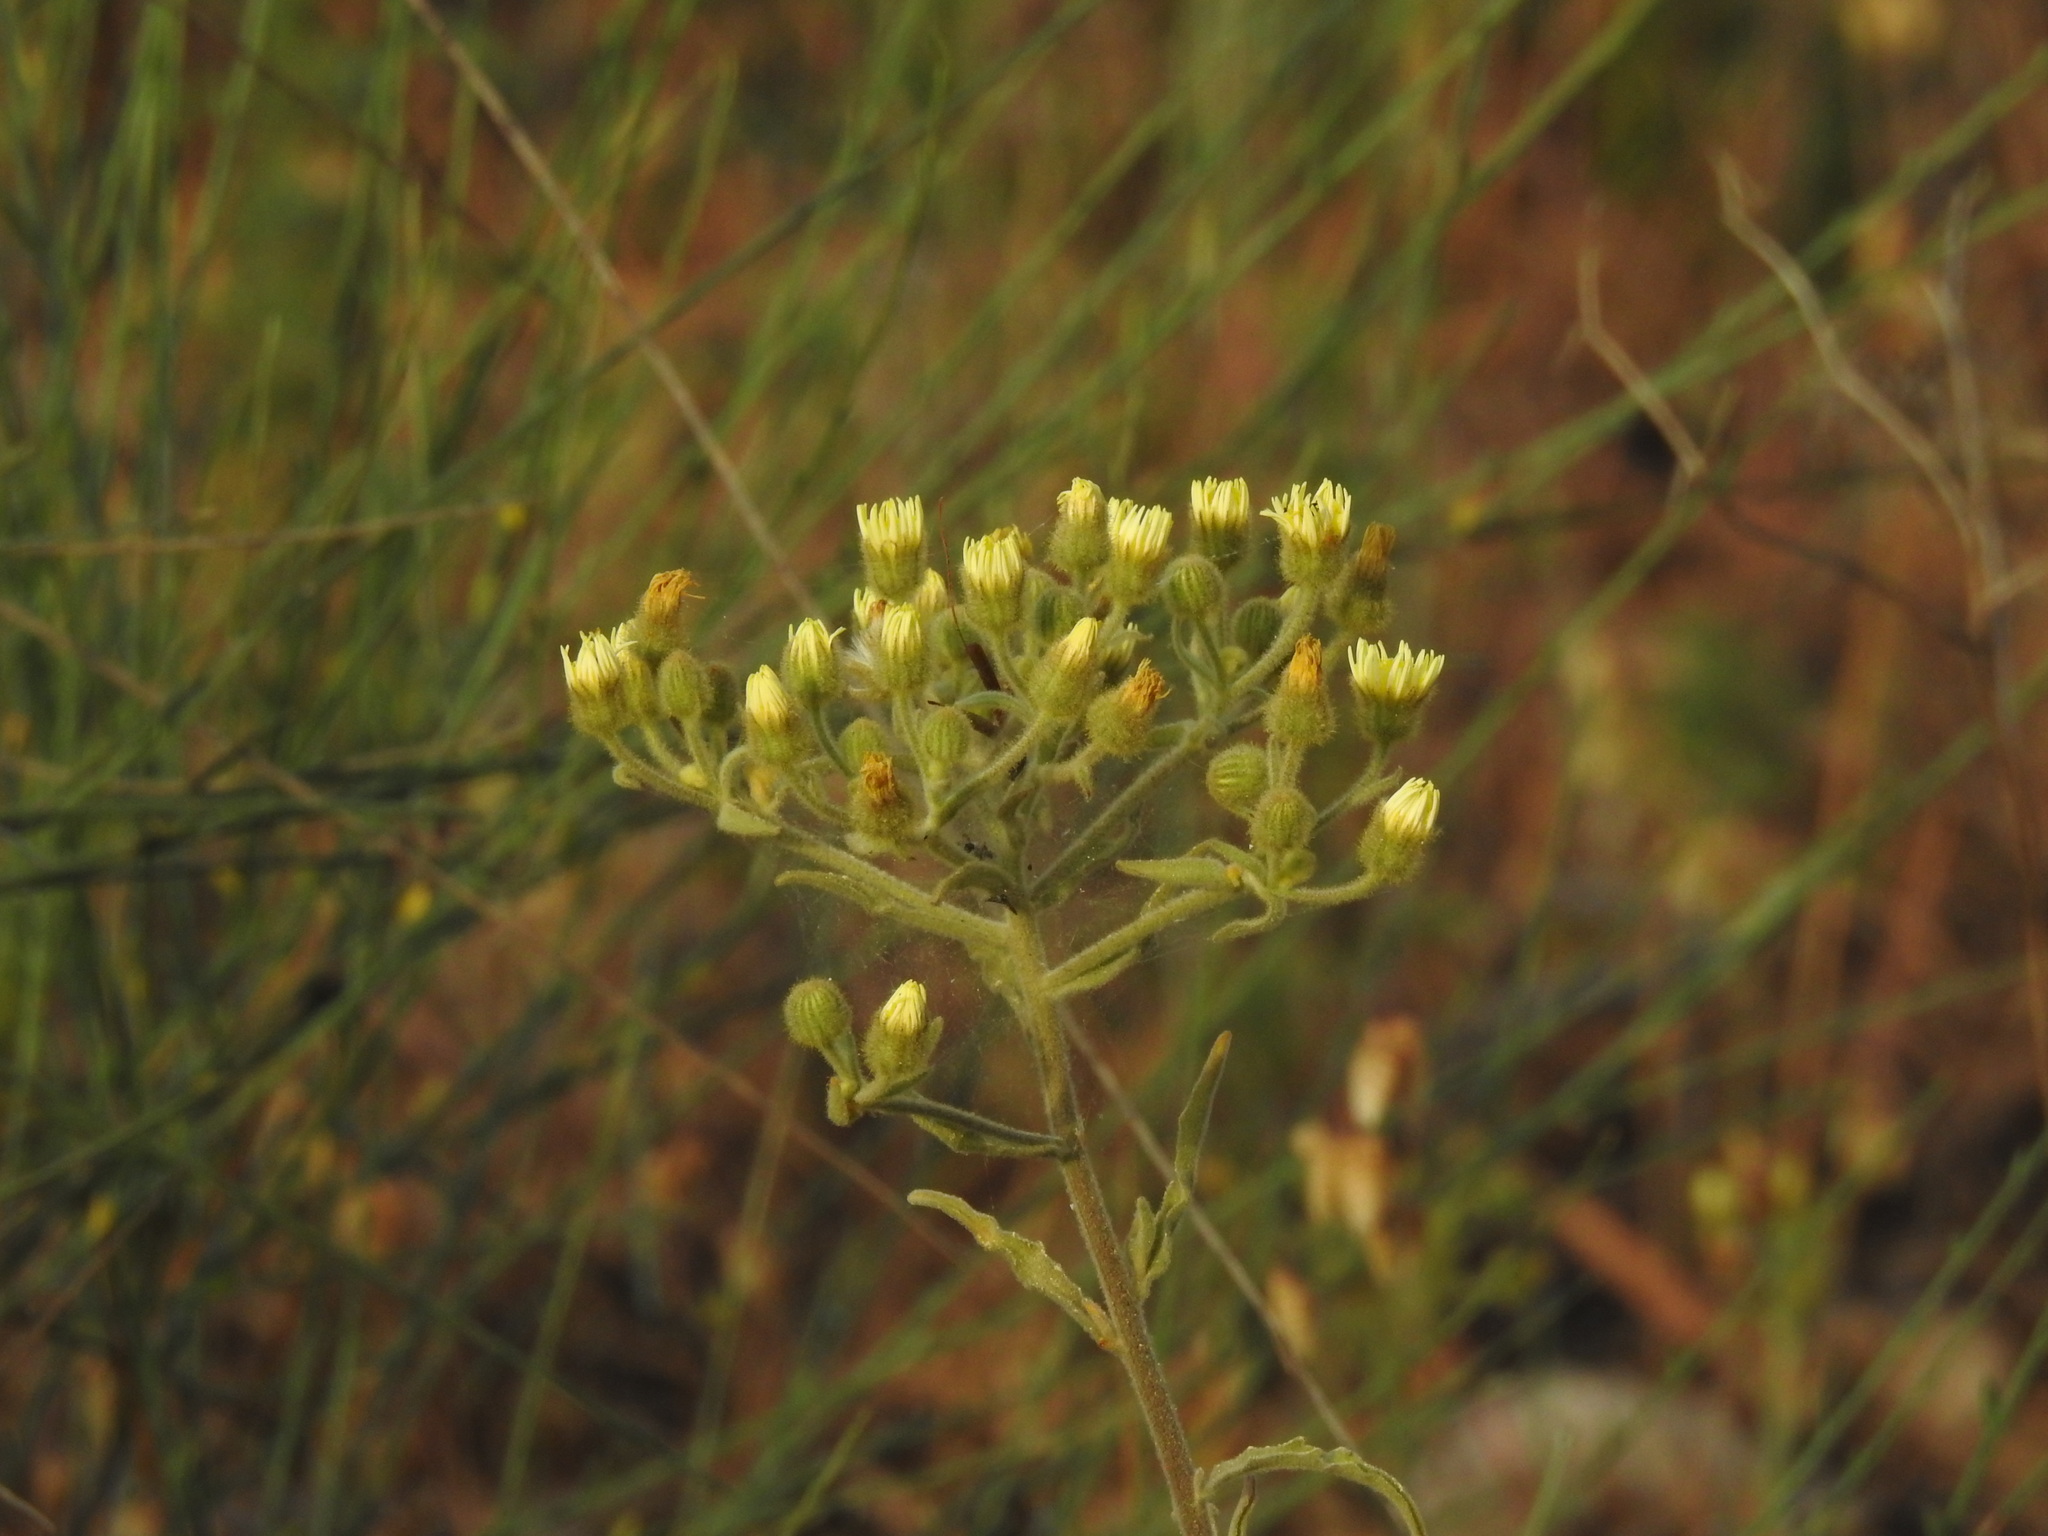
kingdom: Plantae
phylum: Tracheophyta
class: Magnoliopsida
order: Asterales
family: Asteraceae
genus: Andryala
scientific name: Andryala integrifolia
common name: Common andryala
